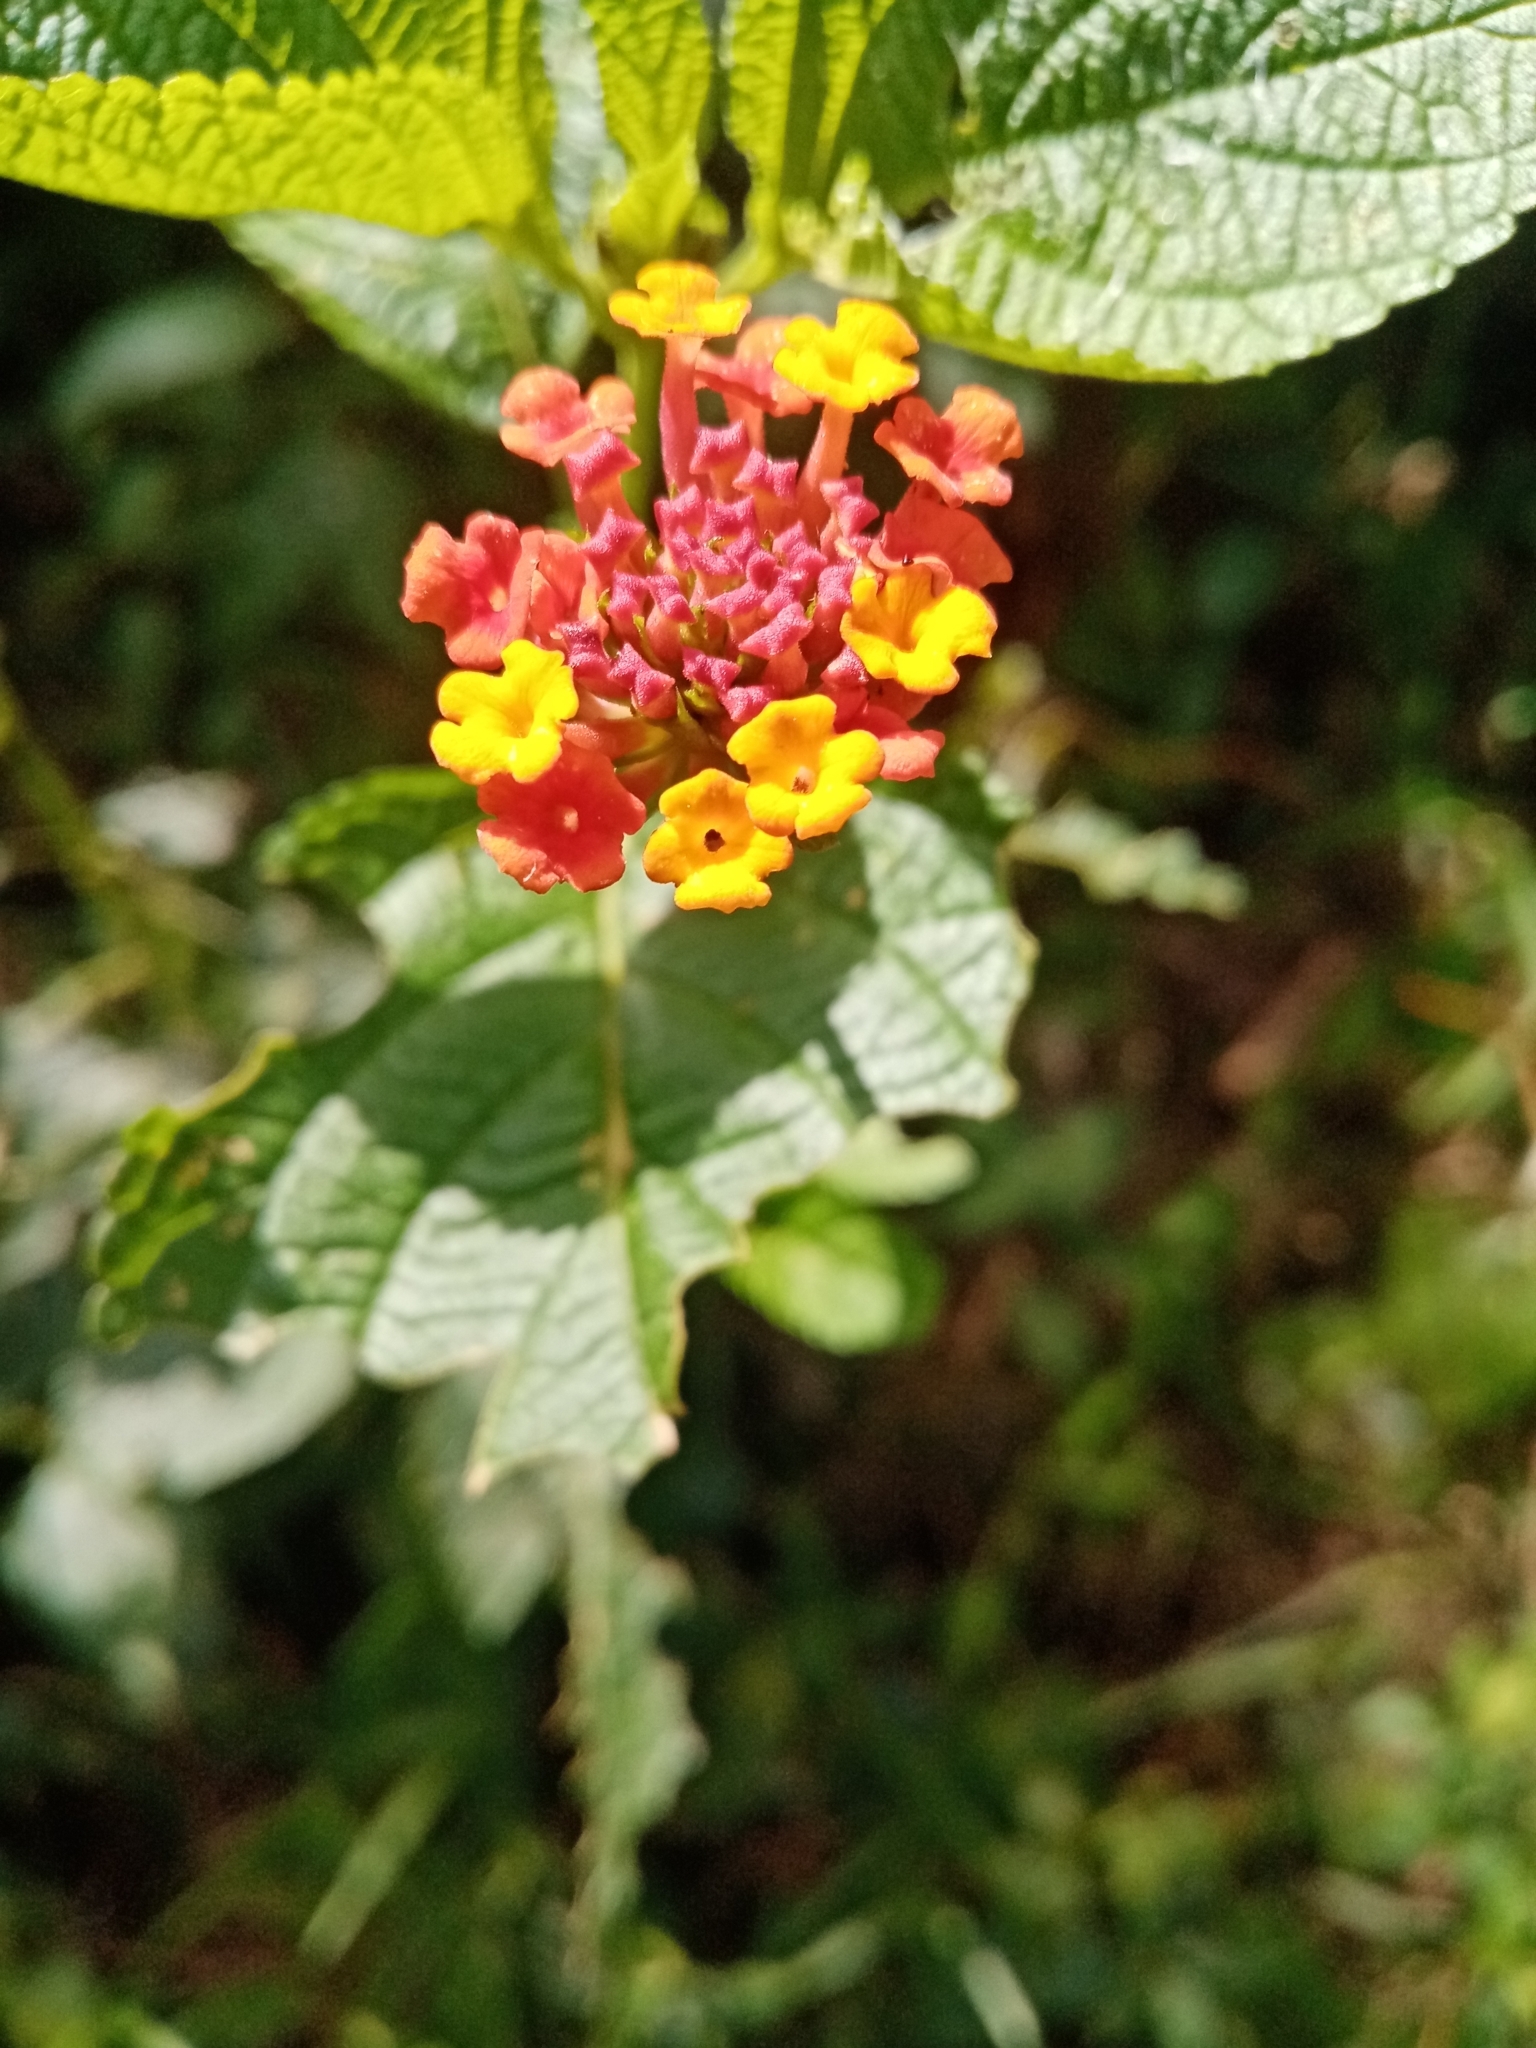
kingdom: Plantae
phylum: Tracheophyta
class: Magnoliopsida
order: Lamiales
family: Verbenaceae
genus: Lantana
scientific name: Lantana camara
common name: Lantana
